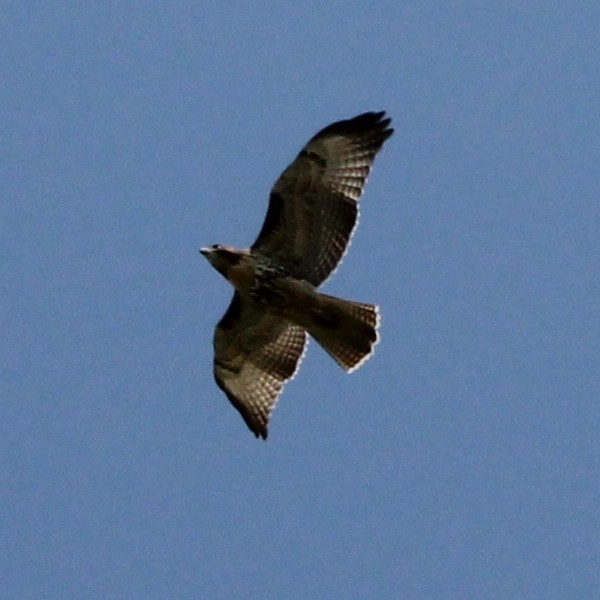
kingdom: Animalia
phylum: Chordata
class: Aves
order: Accipitriformes
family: Accipitridae
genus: Buteo
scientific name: Buteo jamaicensis
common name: Red-tailed hawk
